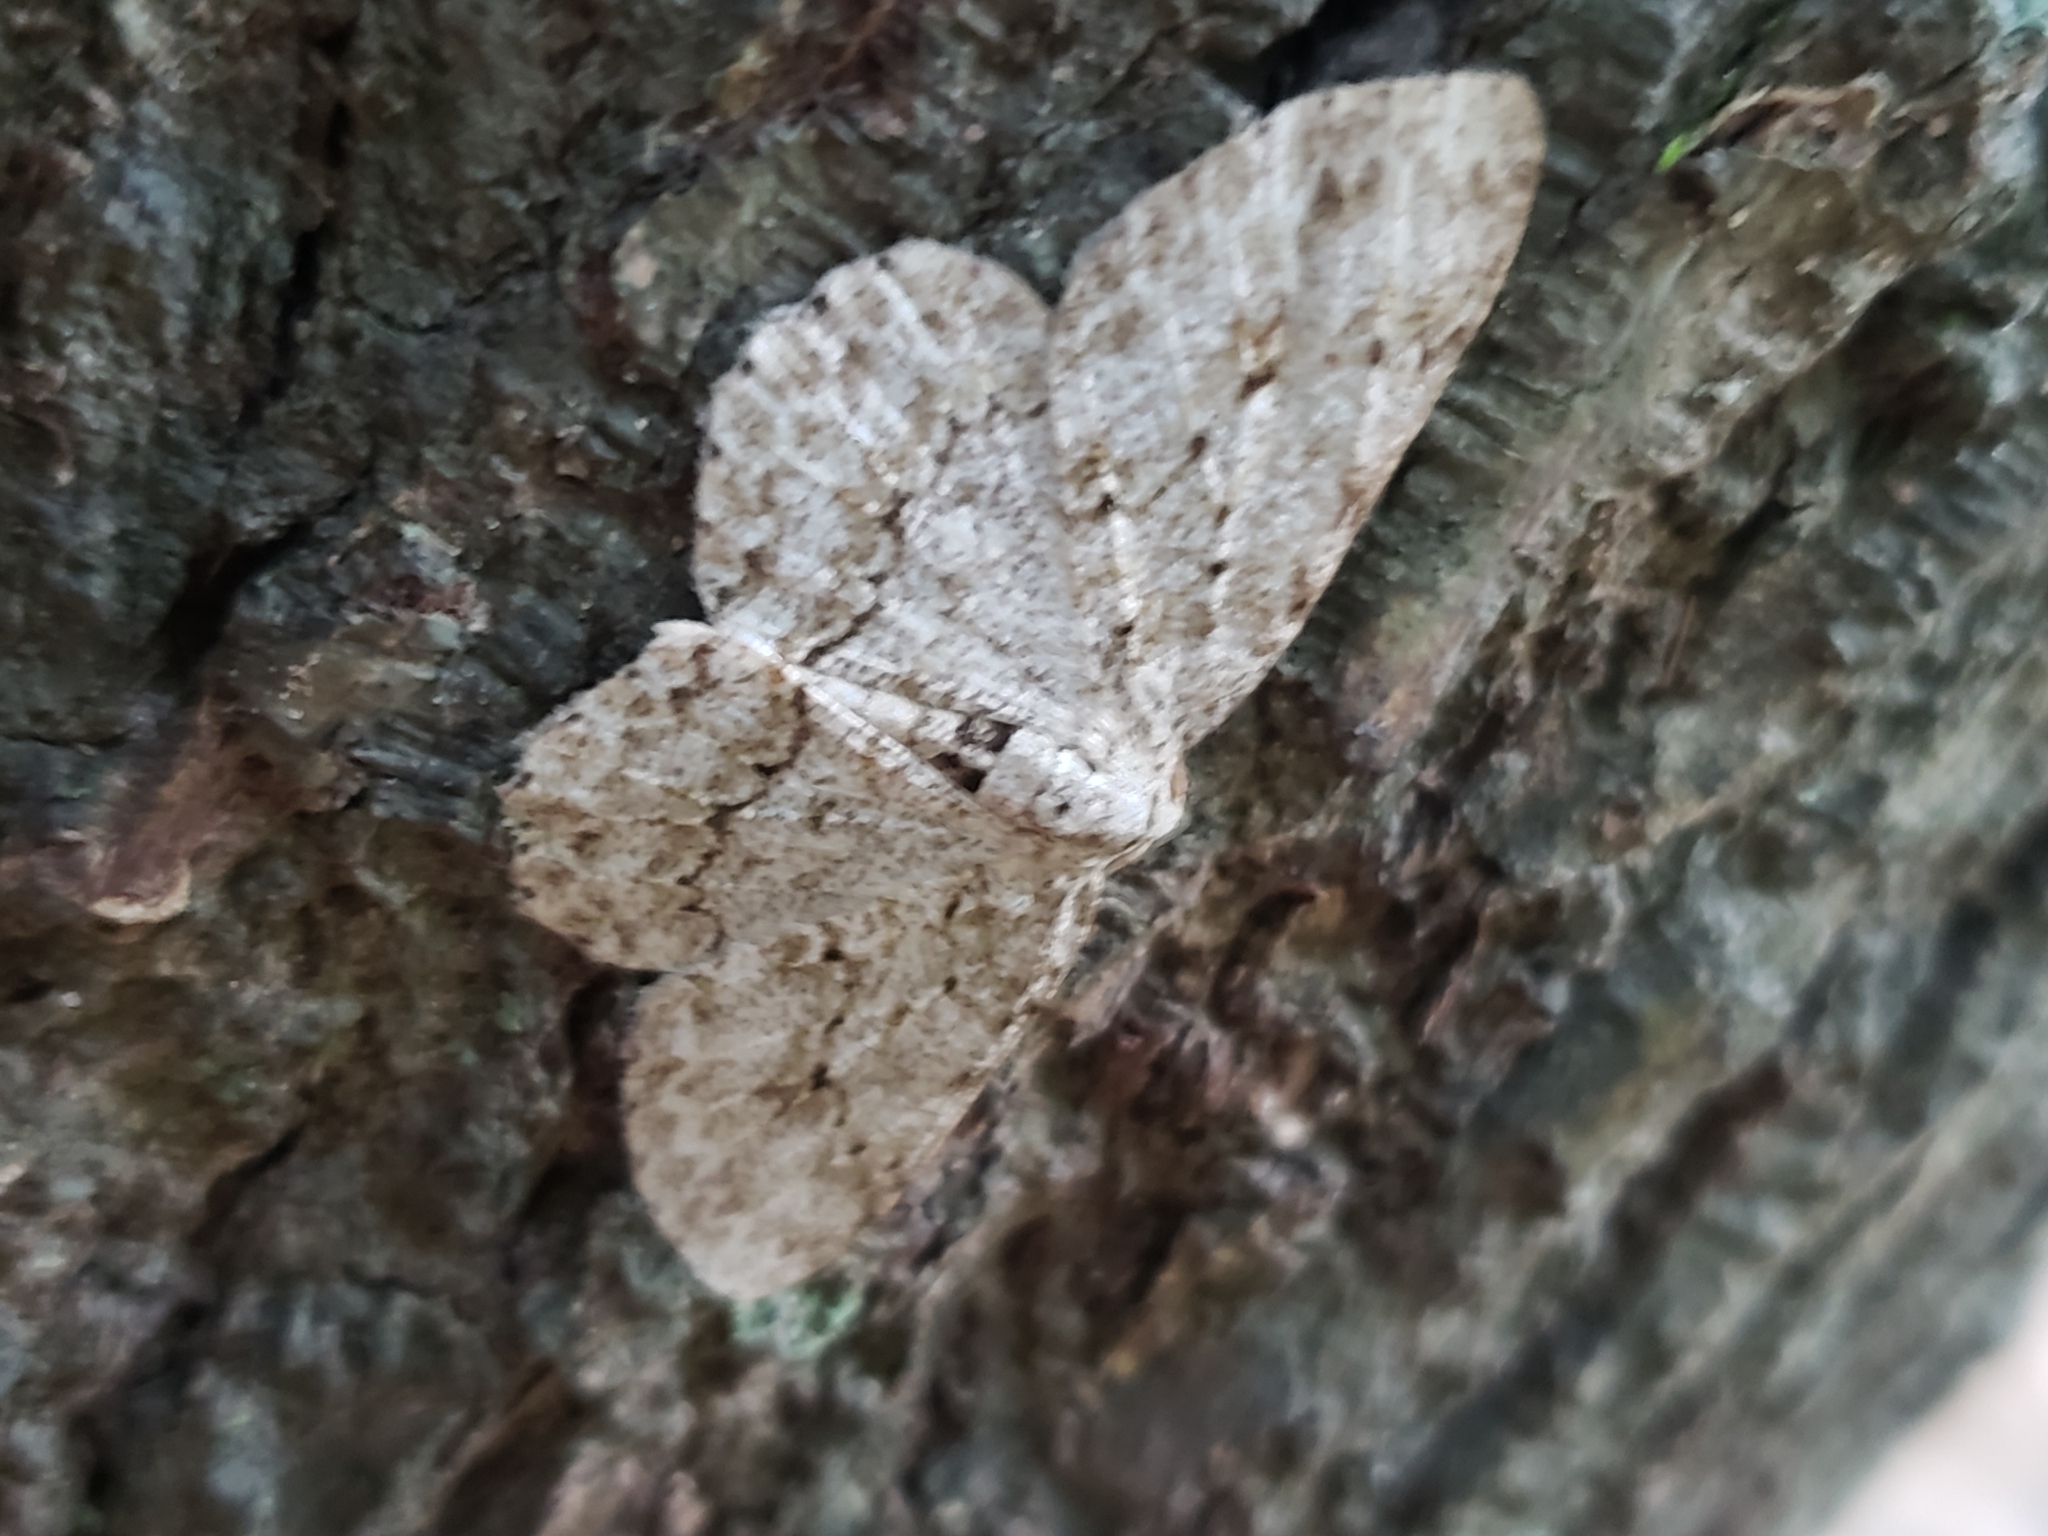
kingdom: Animalia
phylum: Arthropoda
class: Insecta
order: Lepidoptera
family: Geometridae
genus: Ectropis
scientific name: Ectropis crepuscularia
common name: Engrailed
